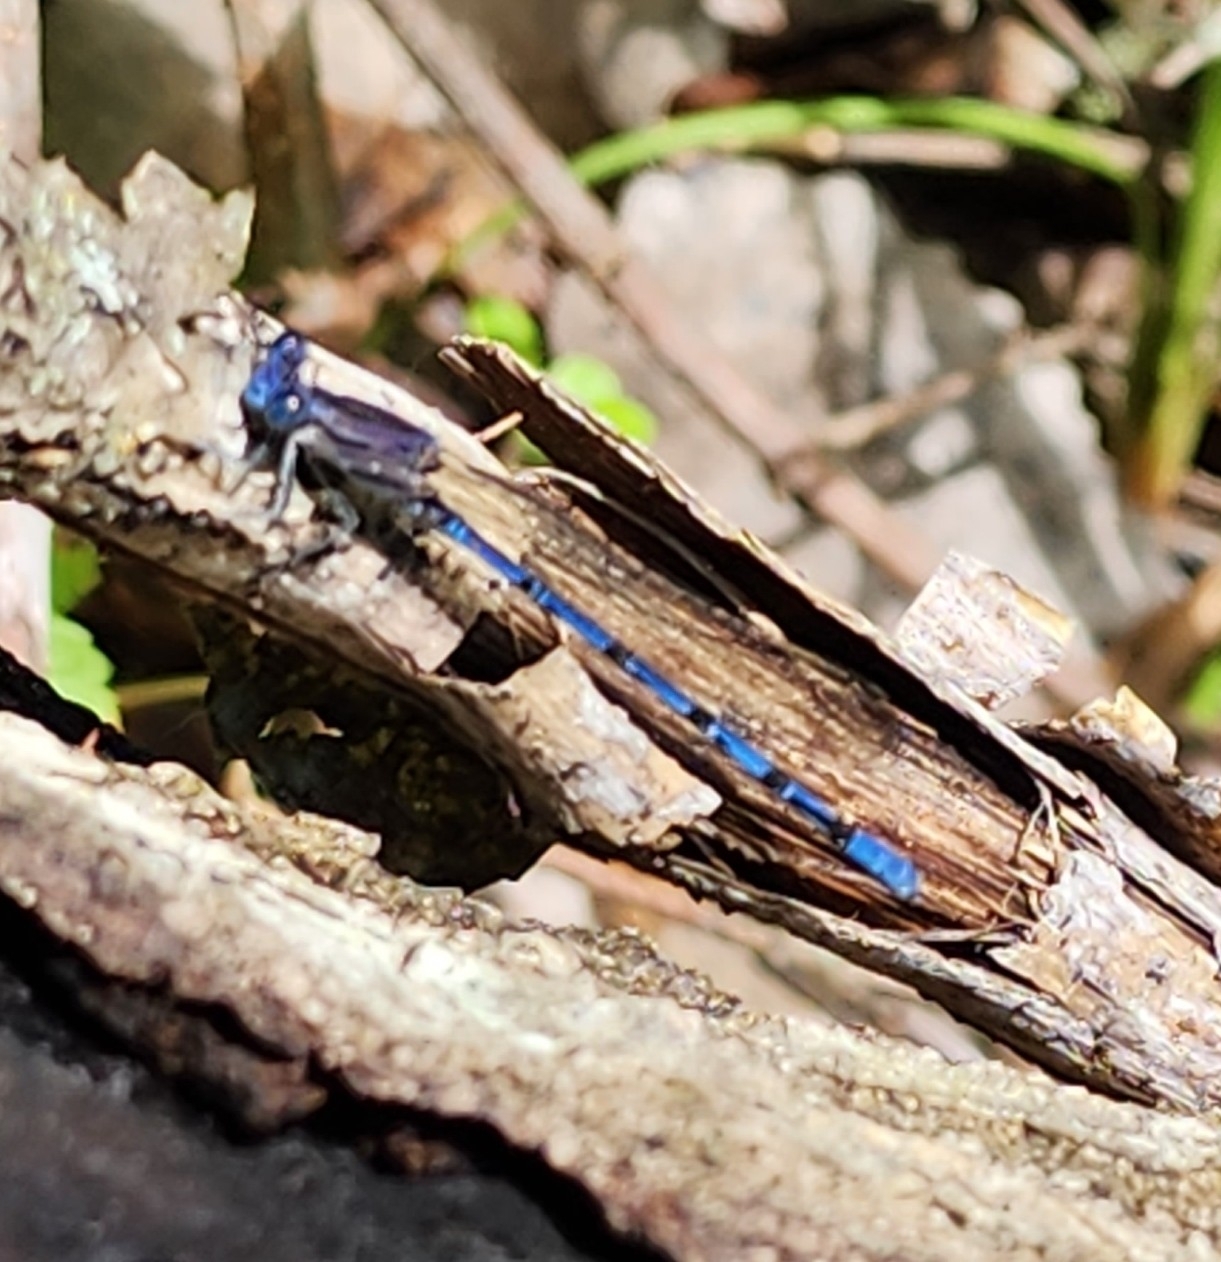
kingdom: Animalia
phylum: Arthropoda
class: Insecta
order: Odonata
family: Coenagrionidae
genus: Argia
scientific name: Argia funebris
